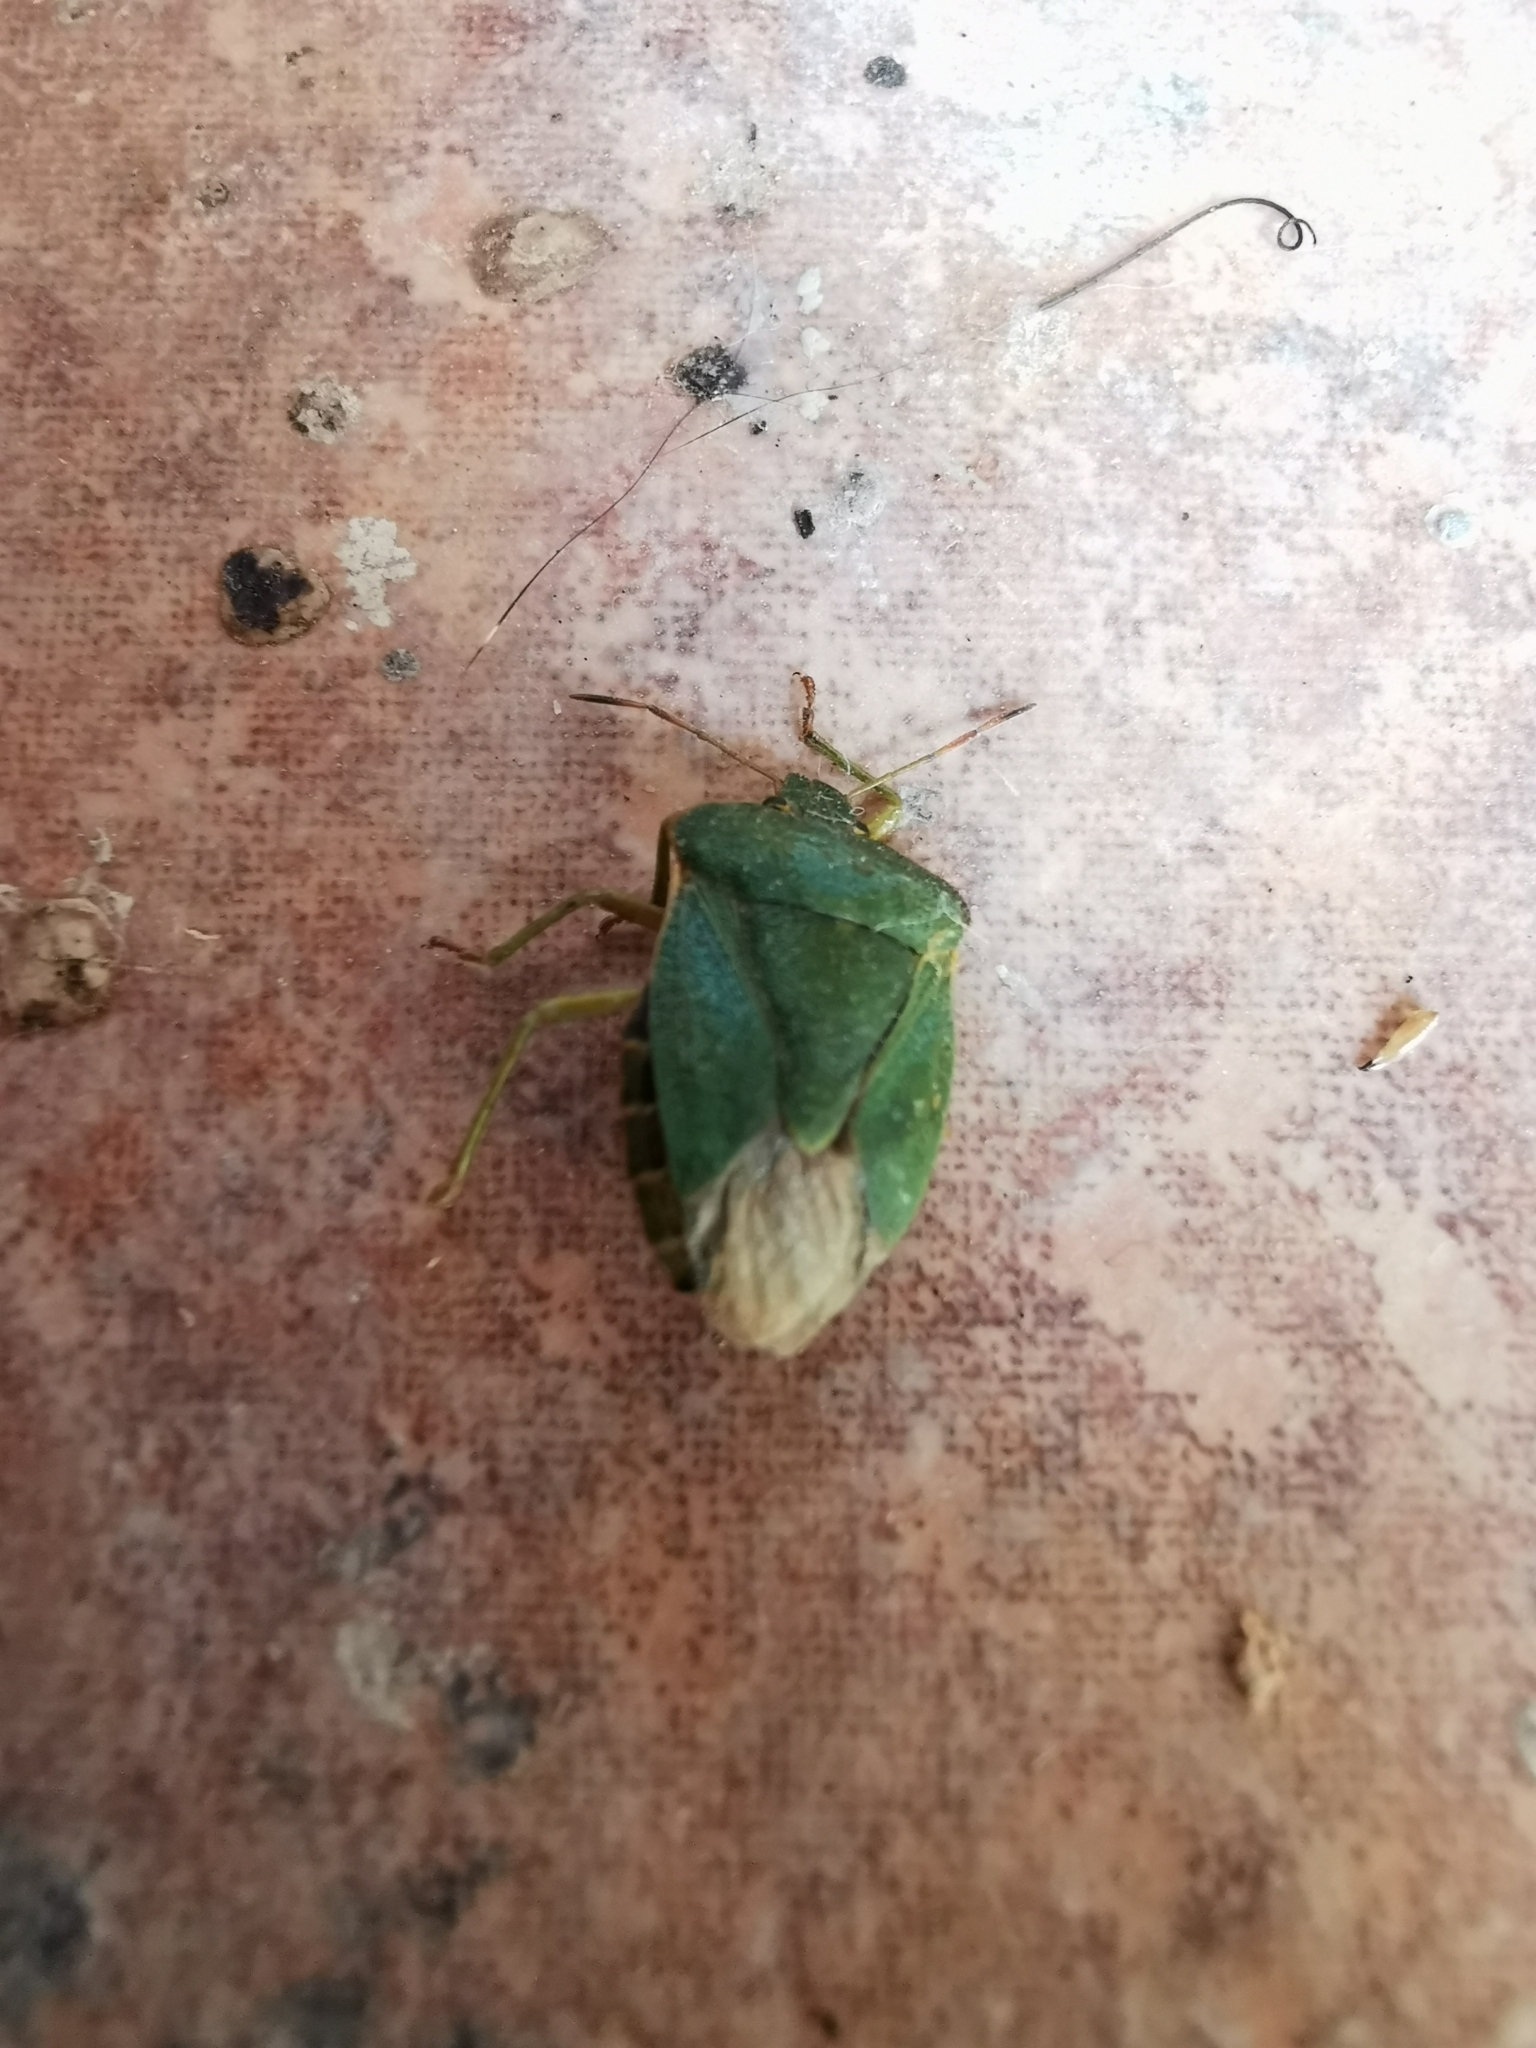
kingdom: Animalia
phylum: Arthropoda
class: Insecta
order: Hemiptera
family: Pentatomidae
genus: Palomena
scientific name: Palomena prasina
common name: Green shieldbug
